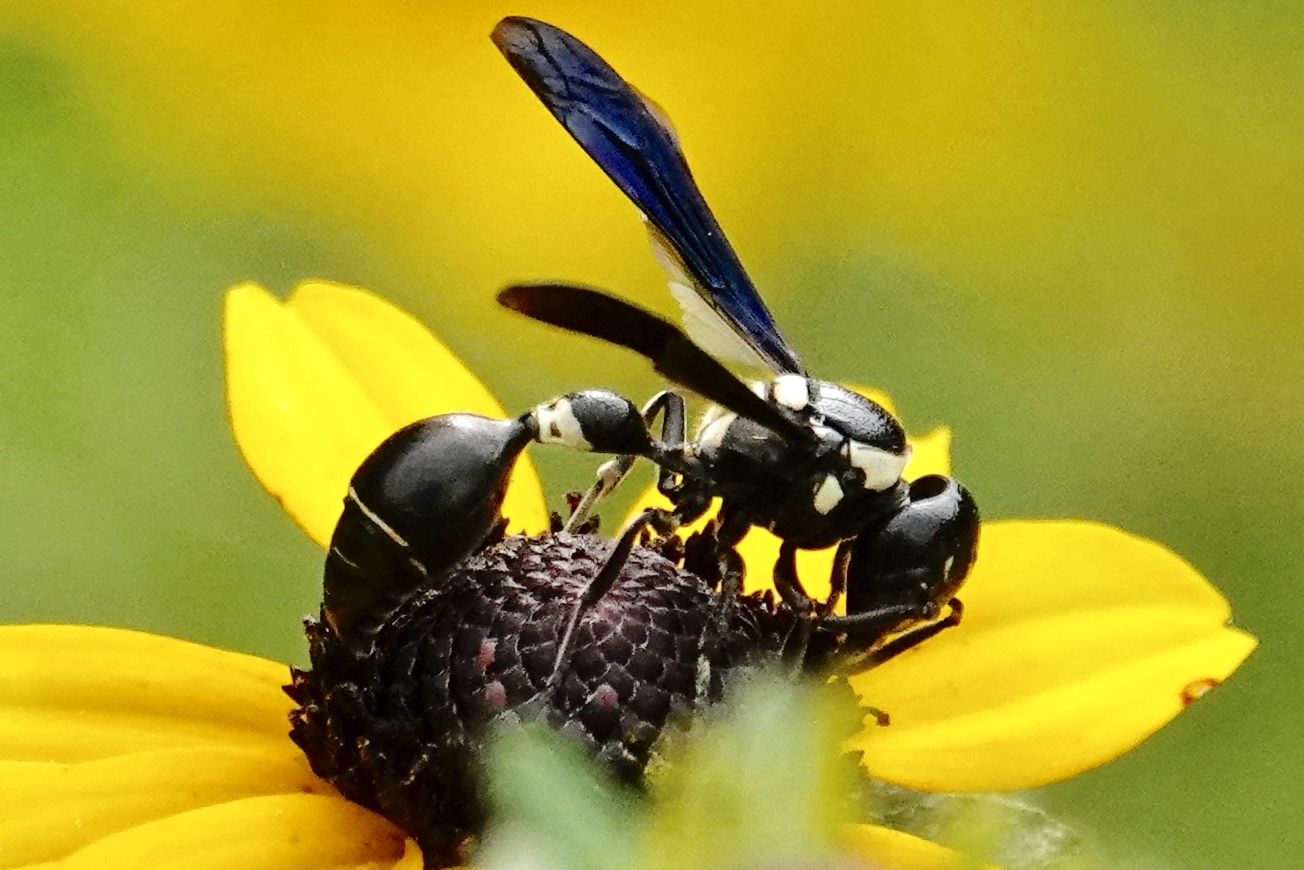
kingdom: Animalia
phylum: Arthropoda
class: Insecta
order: Hymenoptera
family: Eumenidae
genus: Zethus
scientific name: Zethus spinipes
